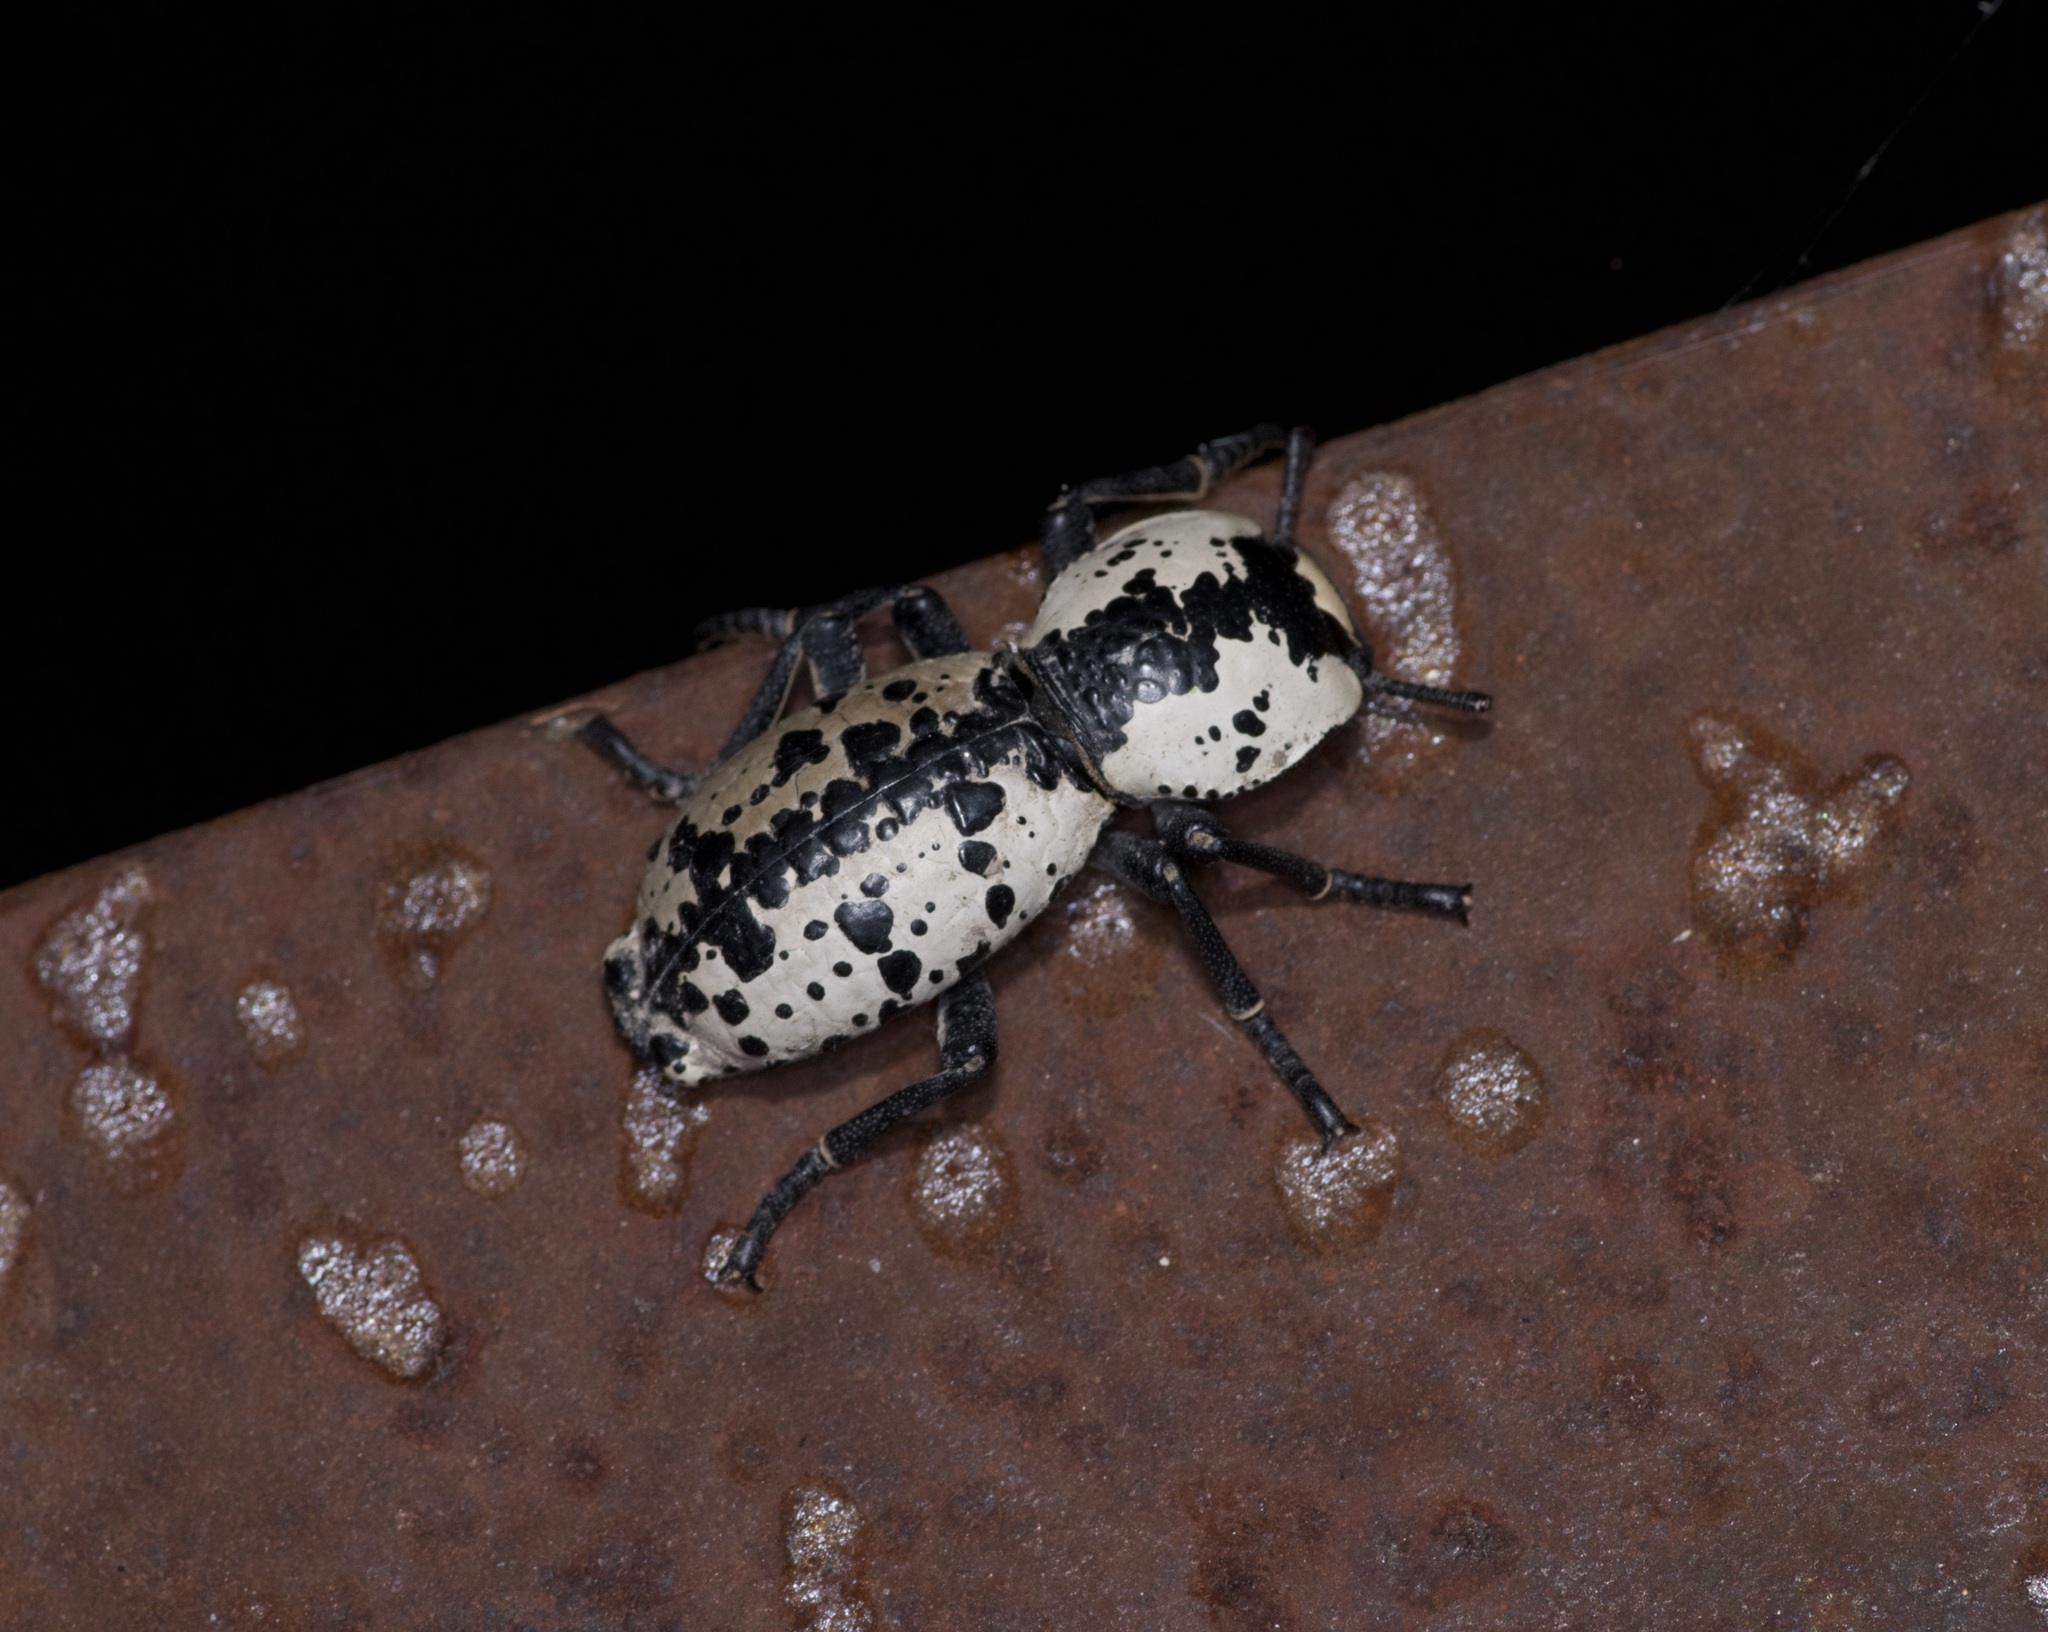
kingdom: Animalia
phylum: Arthropoda
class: Insecta
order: Coleoptera
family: Zopheridae
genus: Zopherus
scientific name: Zopherus nodulosus
